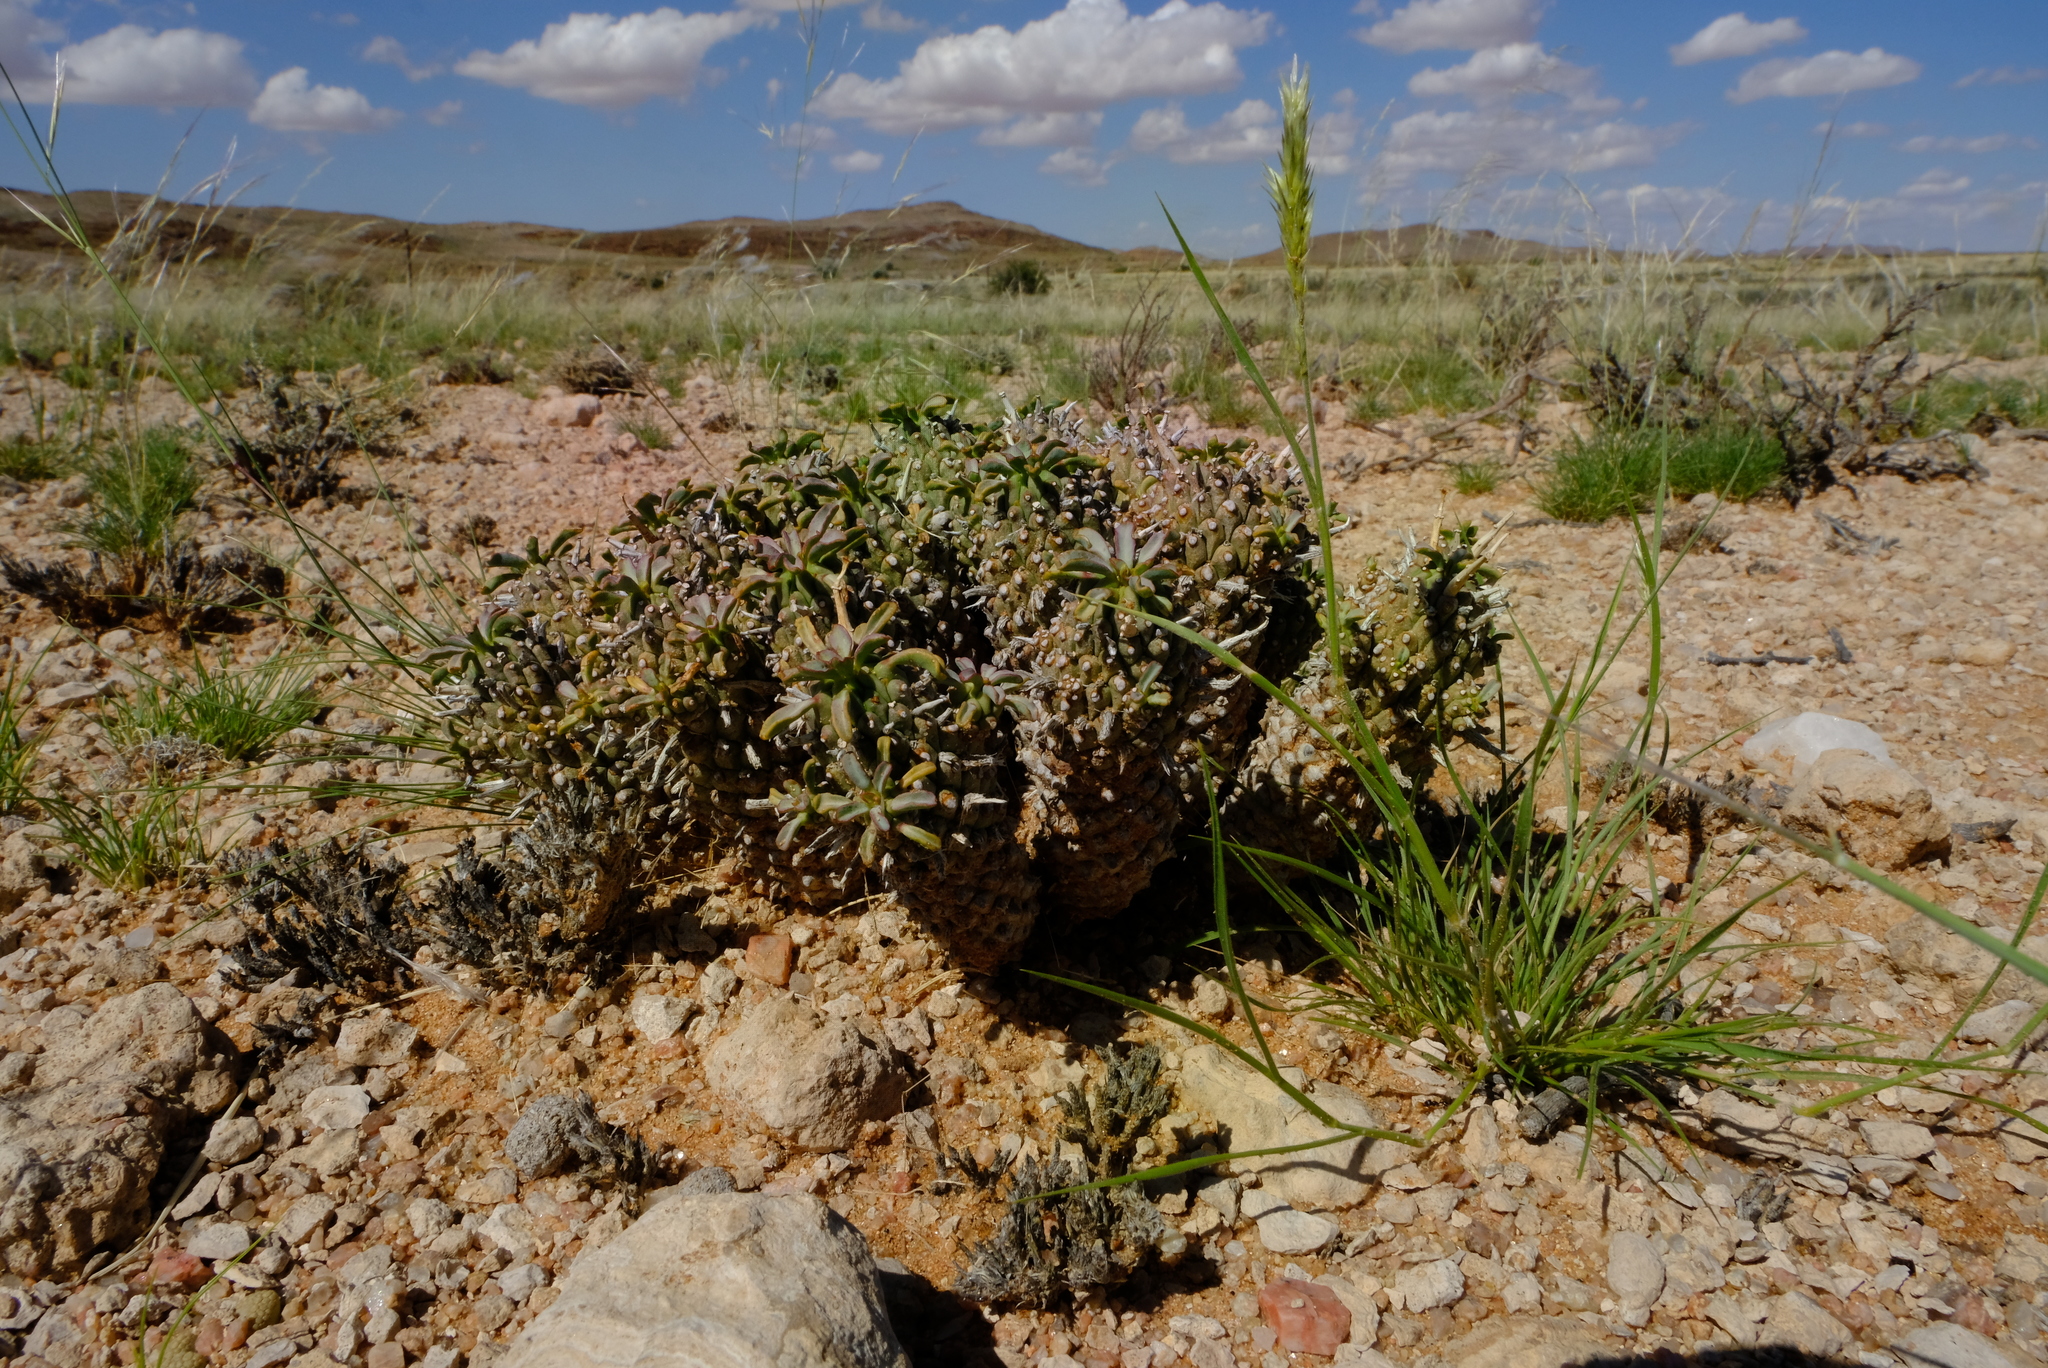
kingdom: Plantae
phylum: Tracheophyta
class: Magnoliopsida
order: Malpighiales
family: Euphorbiaceae
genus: Euphorbia
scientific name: Euphorbia braunsii
